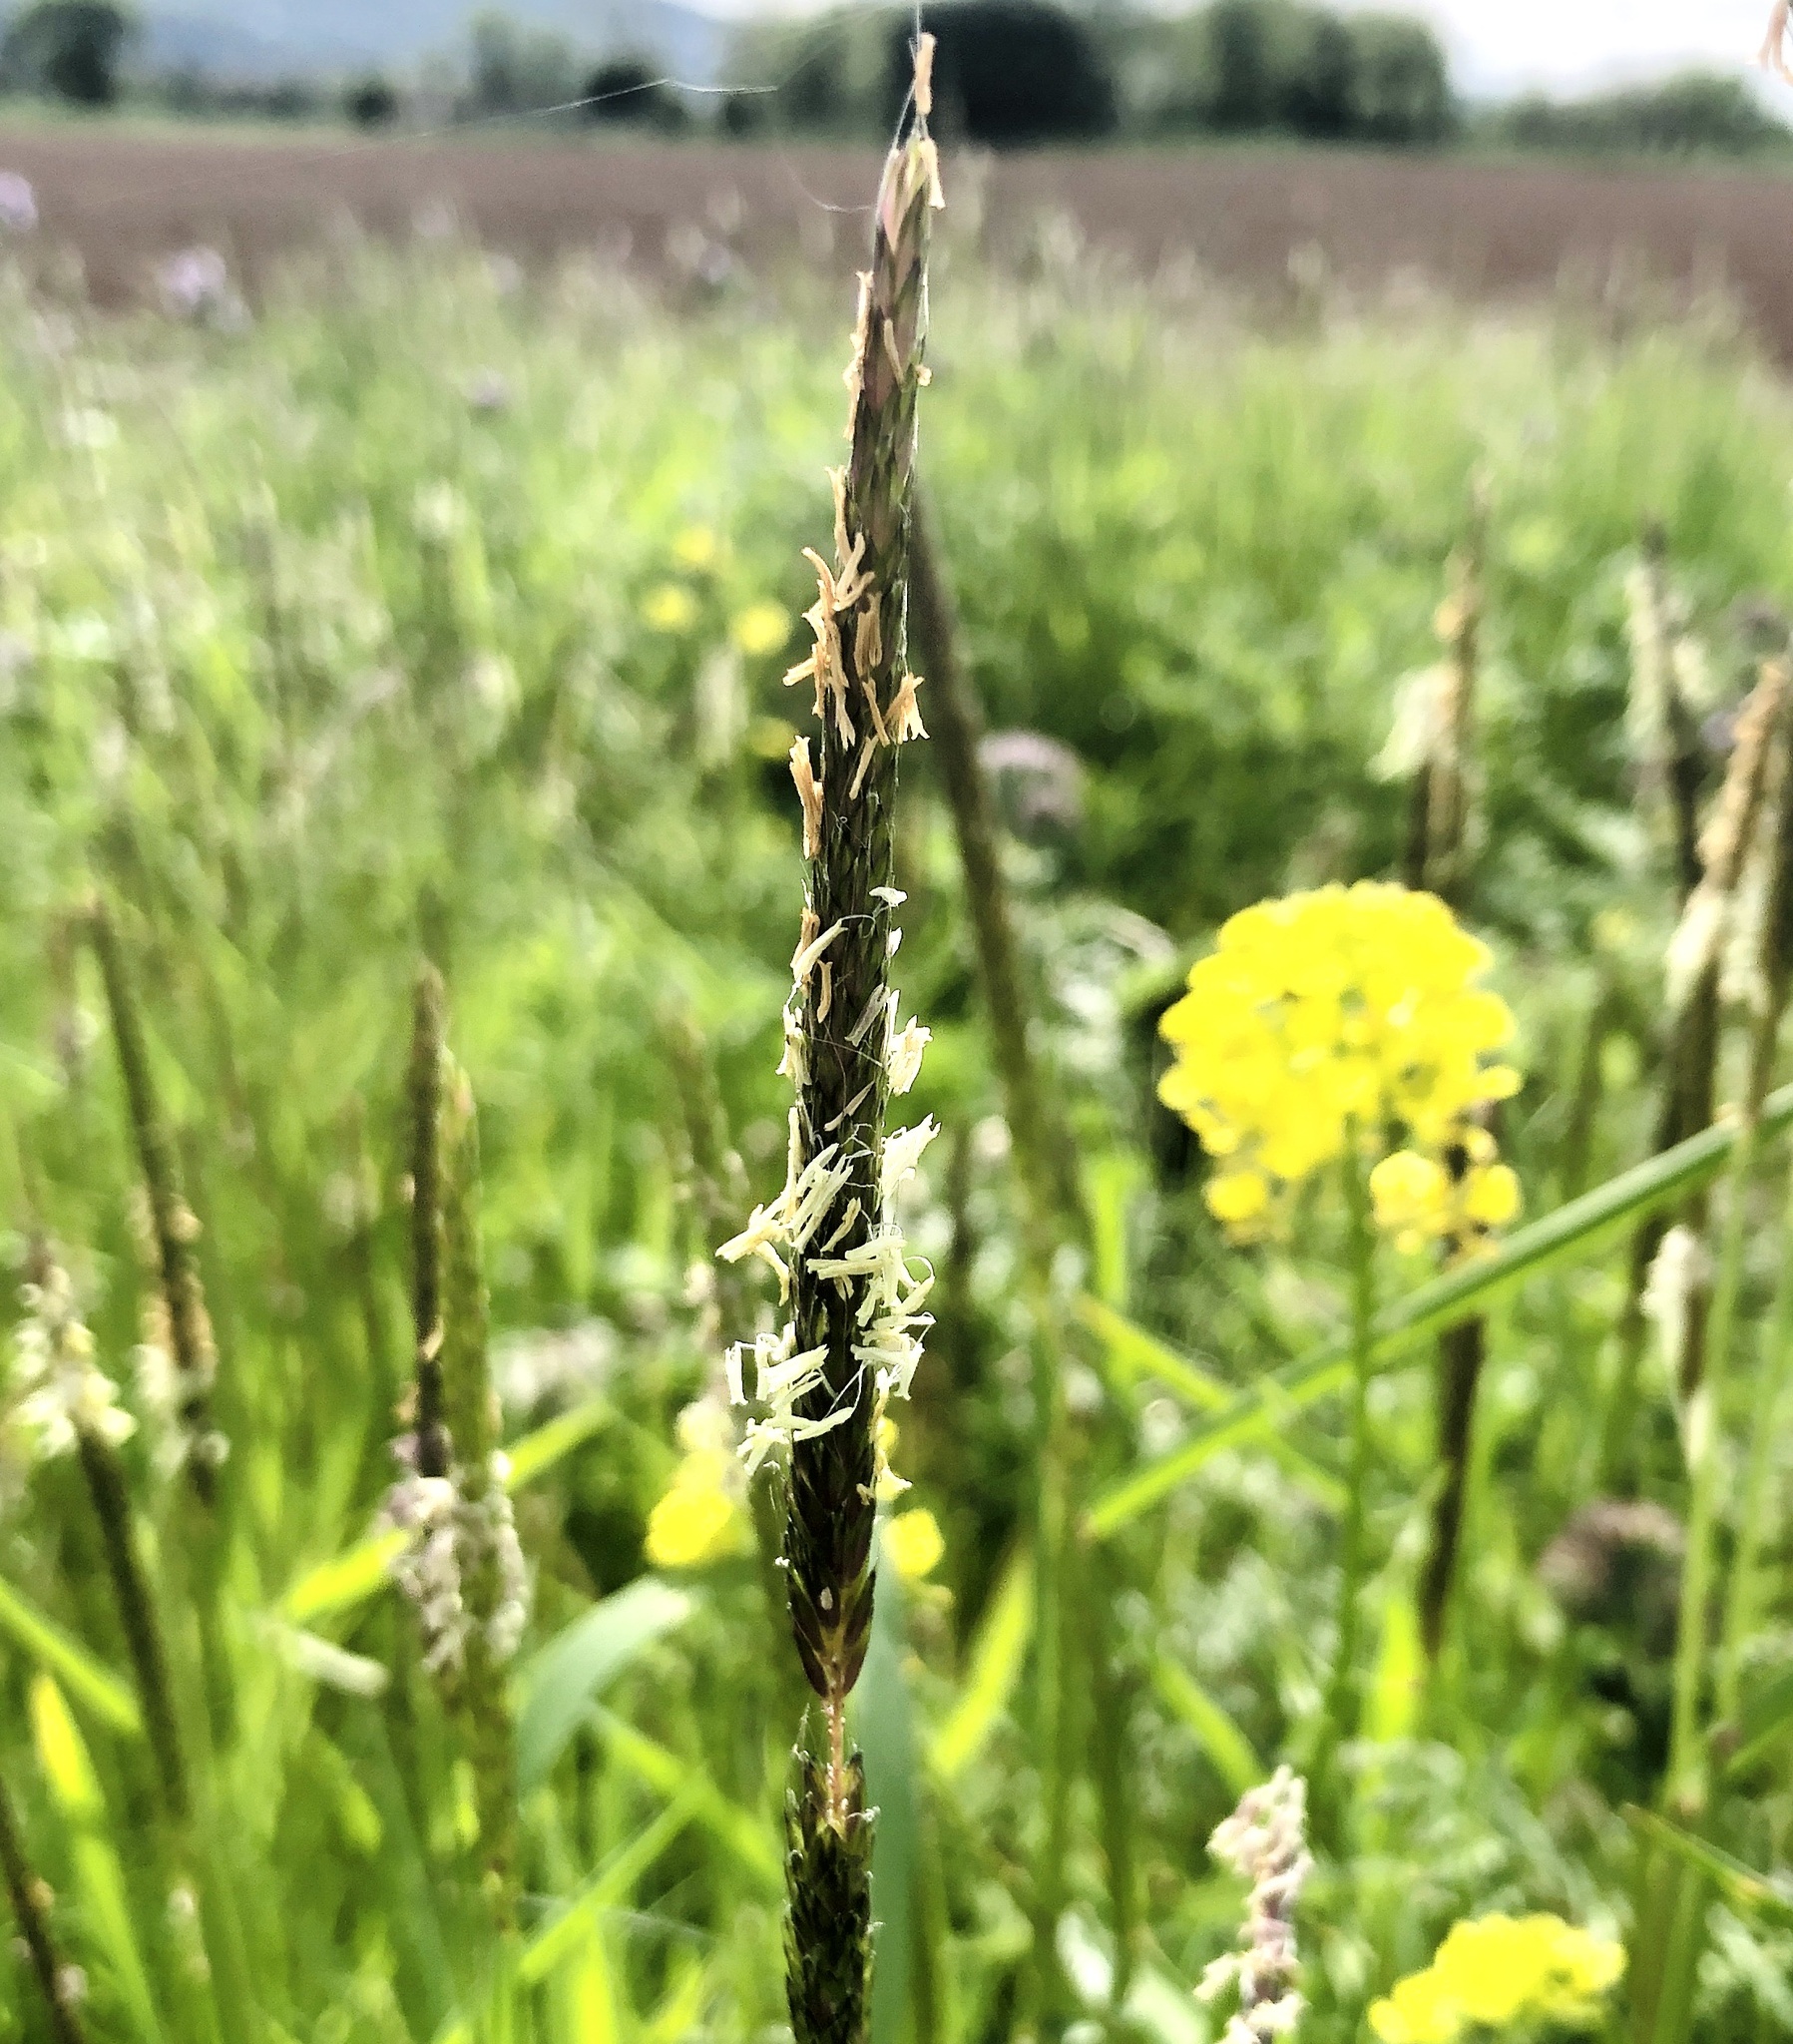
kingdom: Plantae
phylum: Tracheophyta
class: Liliopsida
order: Poales
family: Poaceae
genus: Alopecurus
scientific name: Alopecurus myosuroides
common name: Black-grass
